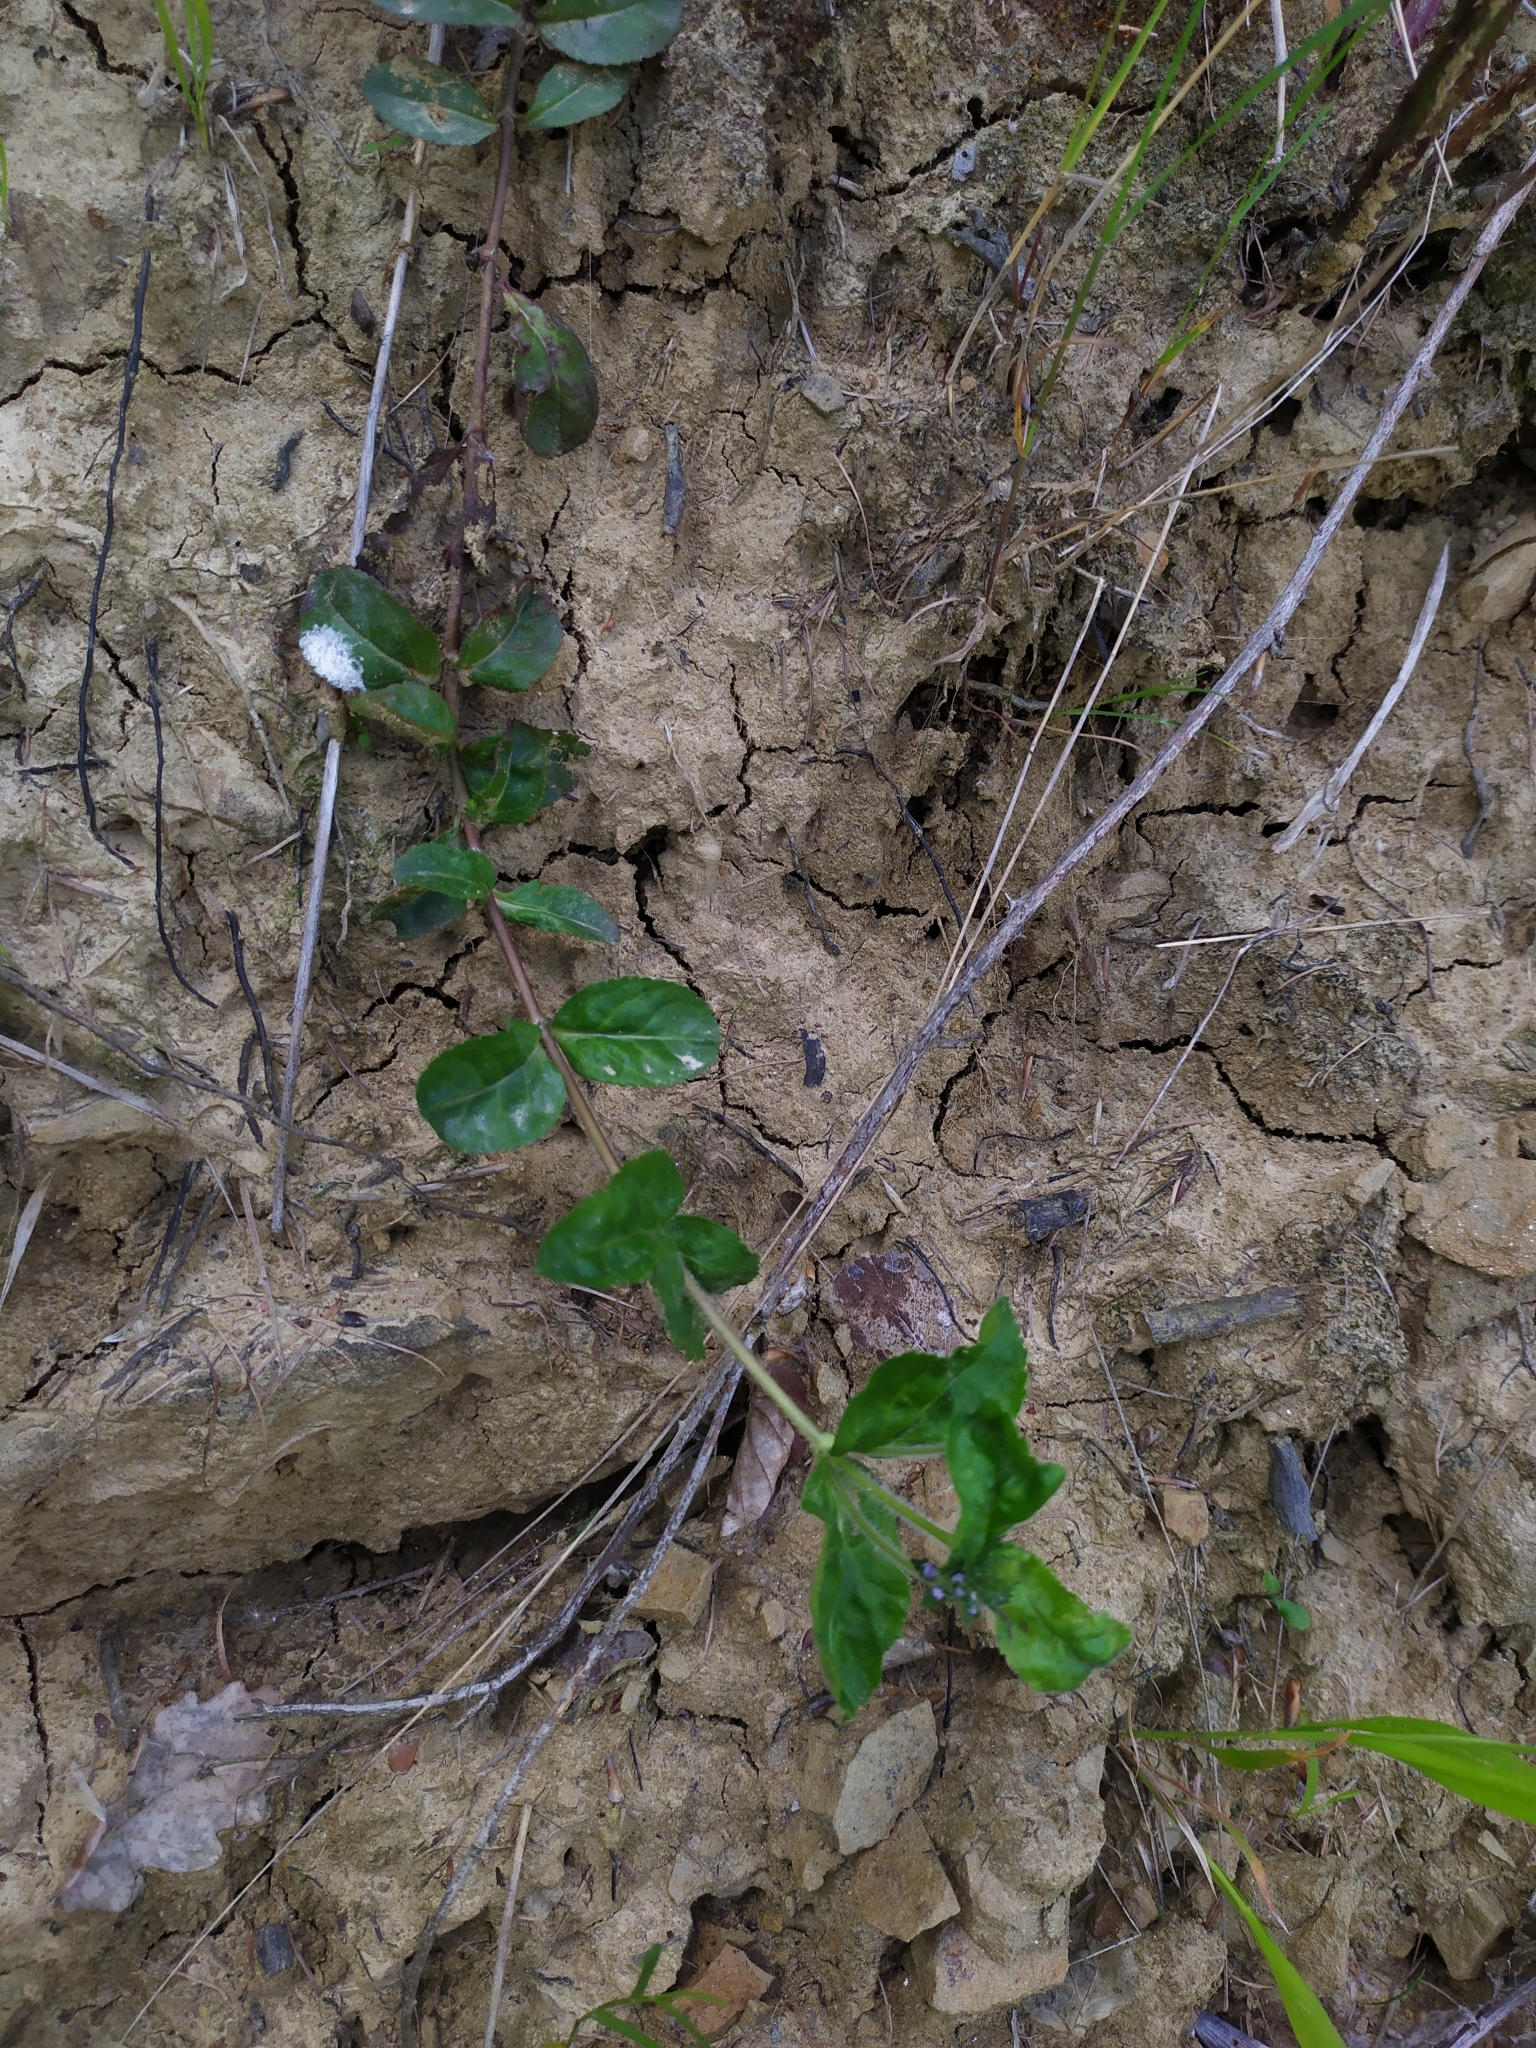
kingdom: Plantae
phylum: Tracheophyta
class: Magnoliopsida
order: Lamiales
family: Plantaginaceae
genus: Veronica
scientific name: Veronica officinalis
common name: Common speedwell
